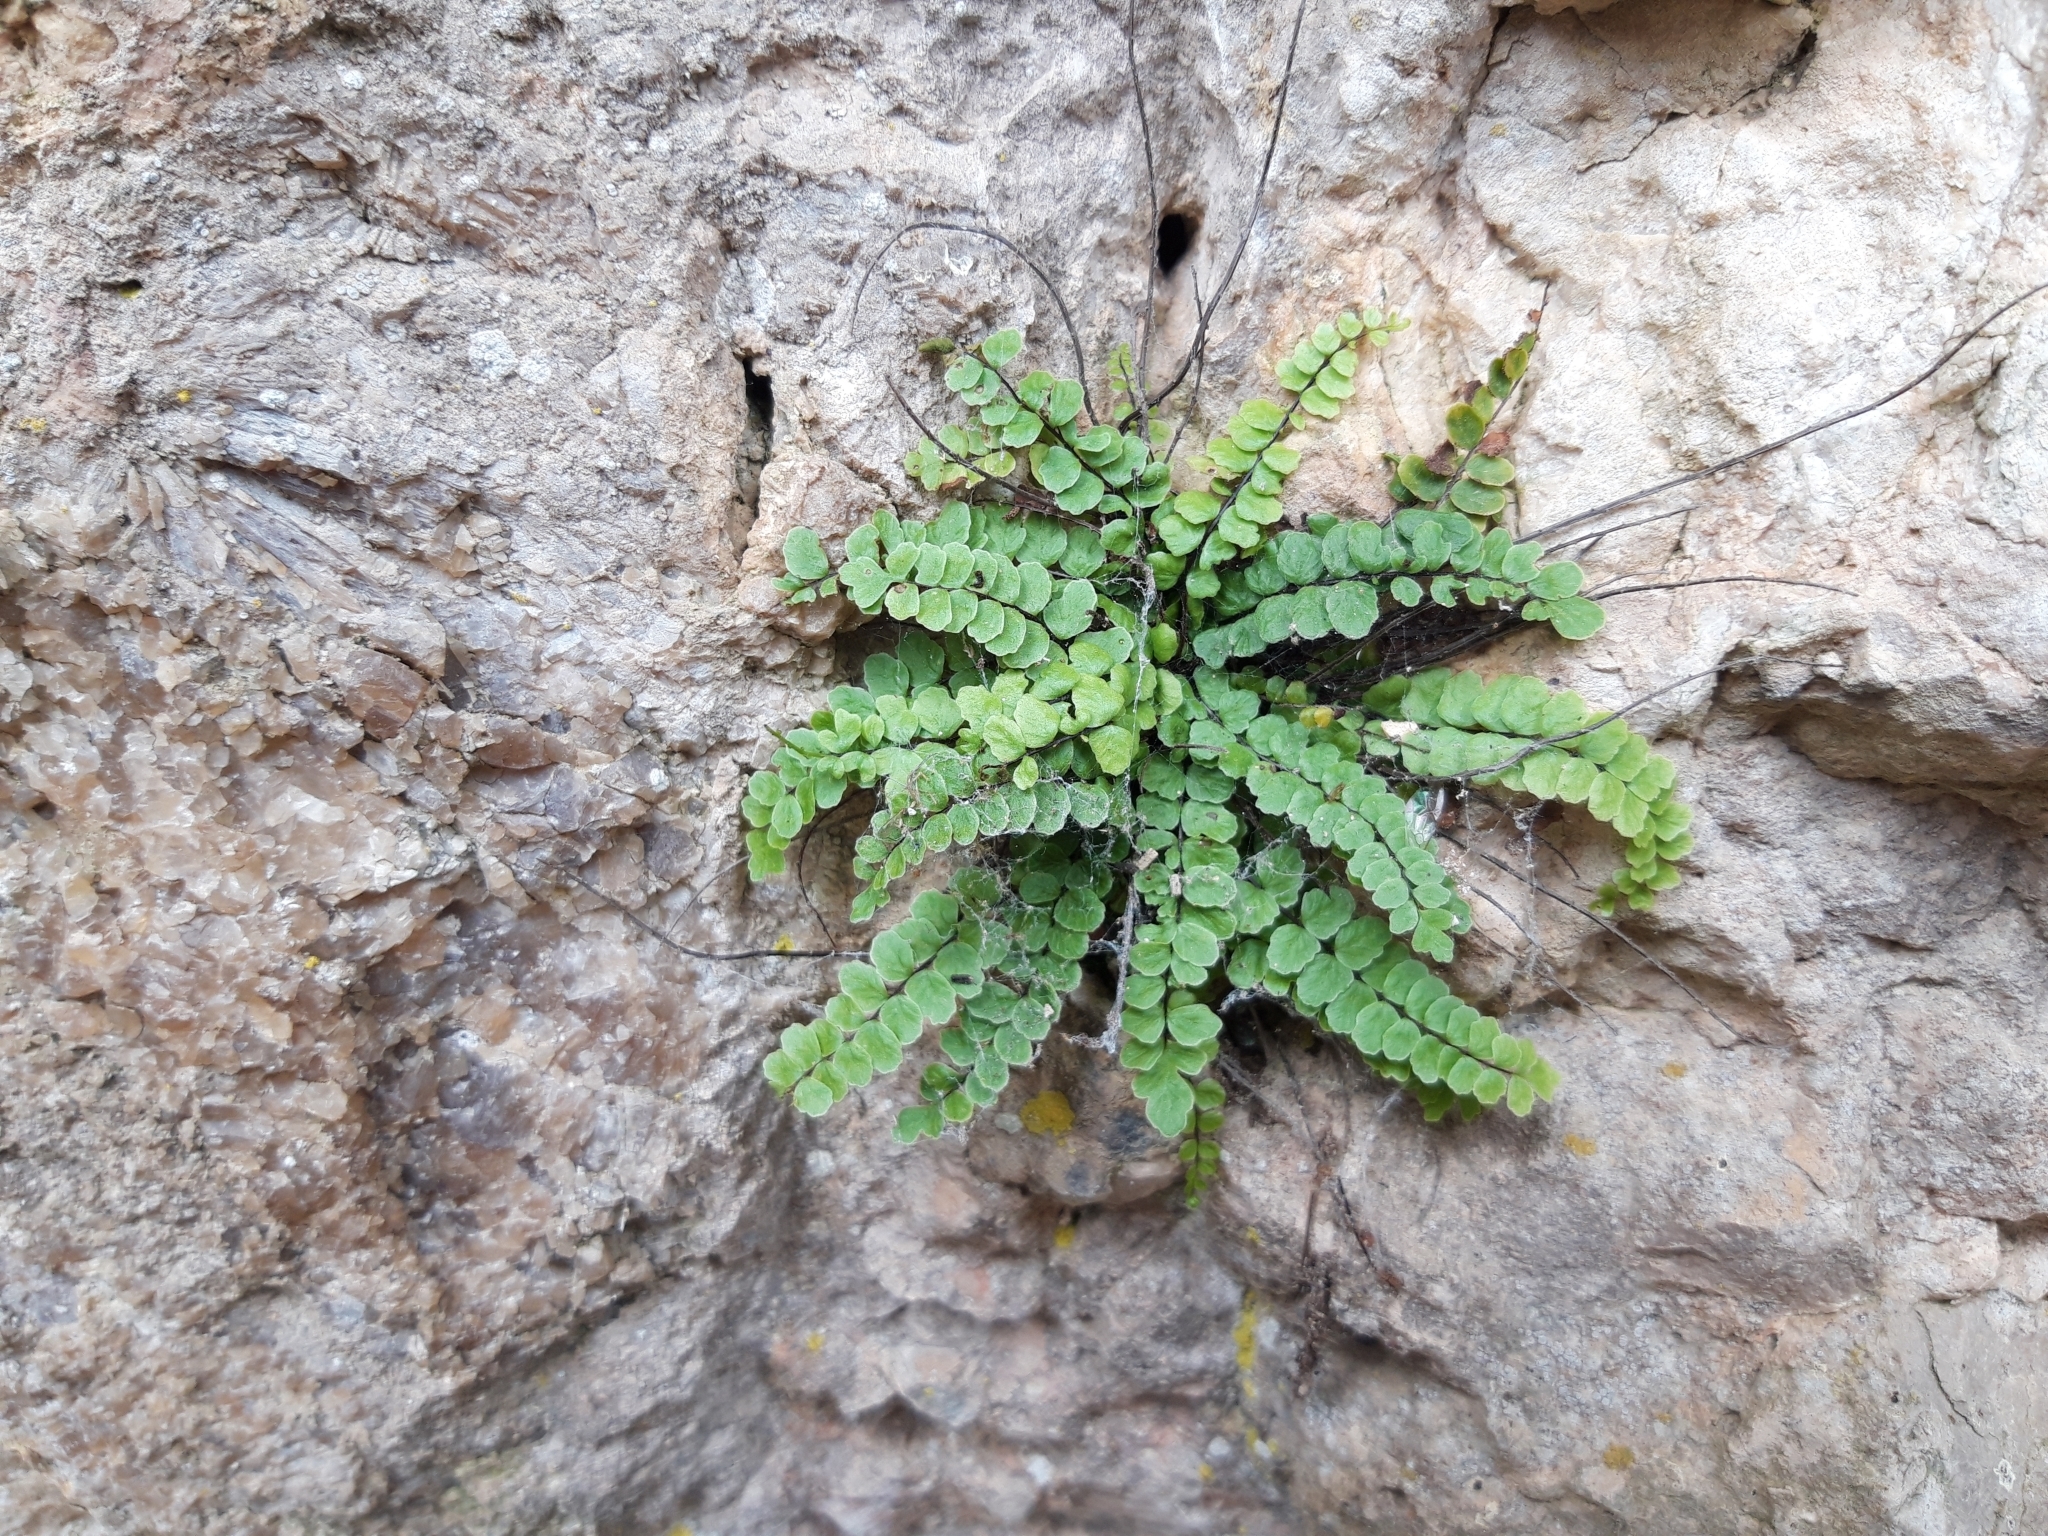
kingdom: Plantae
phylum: Tracheophyta
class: Polypodiopsida
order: Polypodiales
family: Aspleniaceae
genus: Asplenium
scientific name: Asplenium trichomanes
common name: Maidenhair spleenwort
